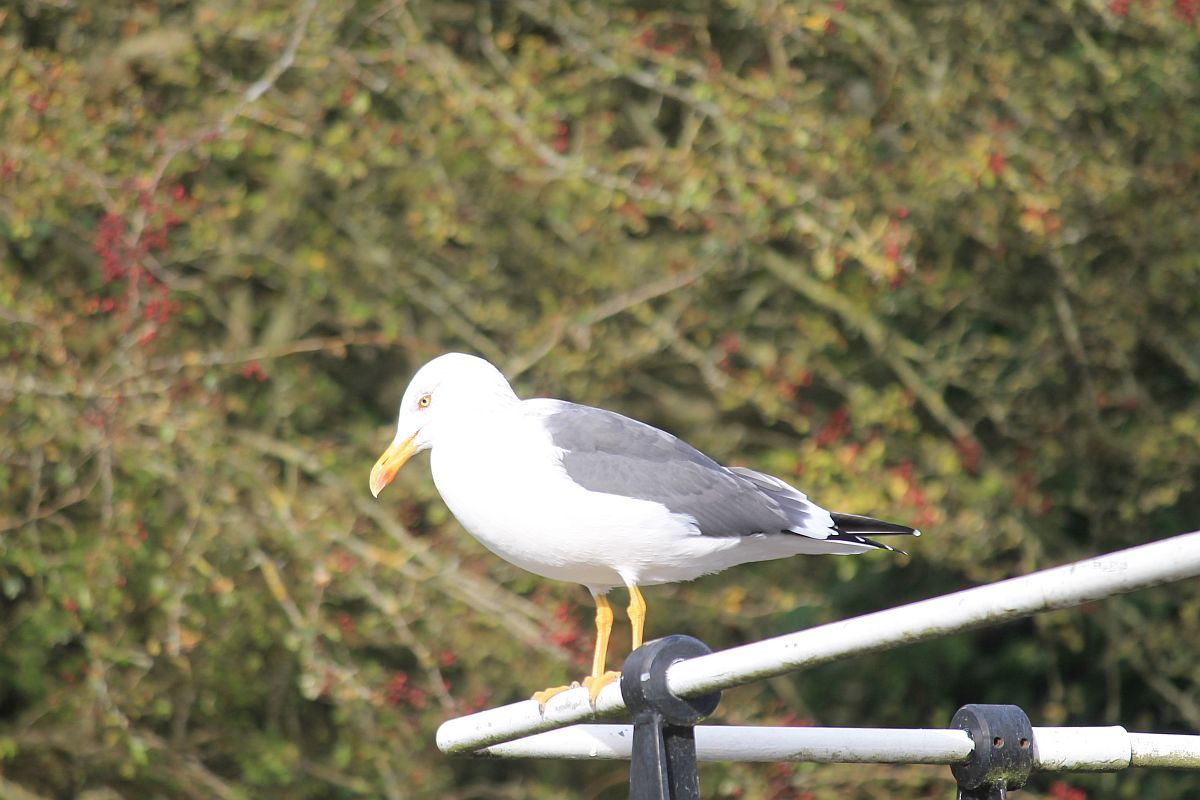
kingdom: Animalia
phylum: Chordata
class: Aves
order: Charadriiformes
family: Laridae
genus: Larus
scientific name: Larus fuscus
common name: Lesser black-backed gull
